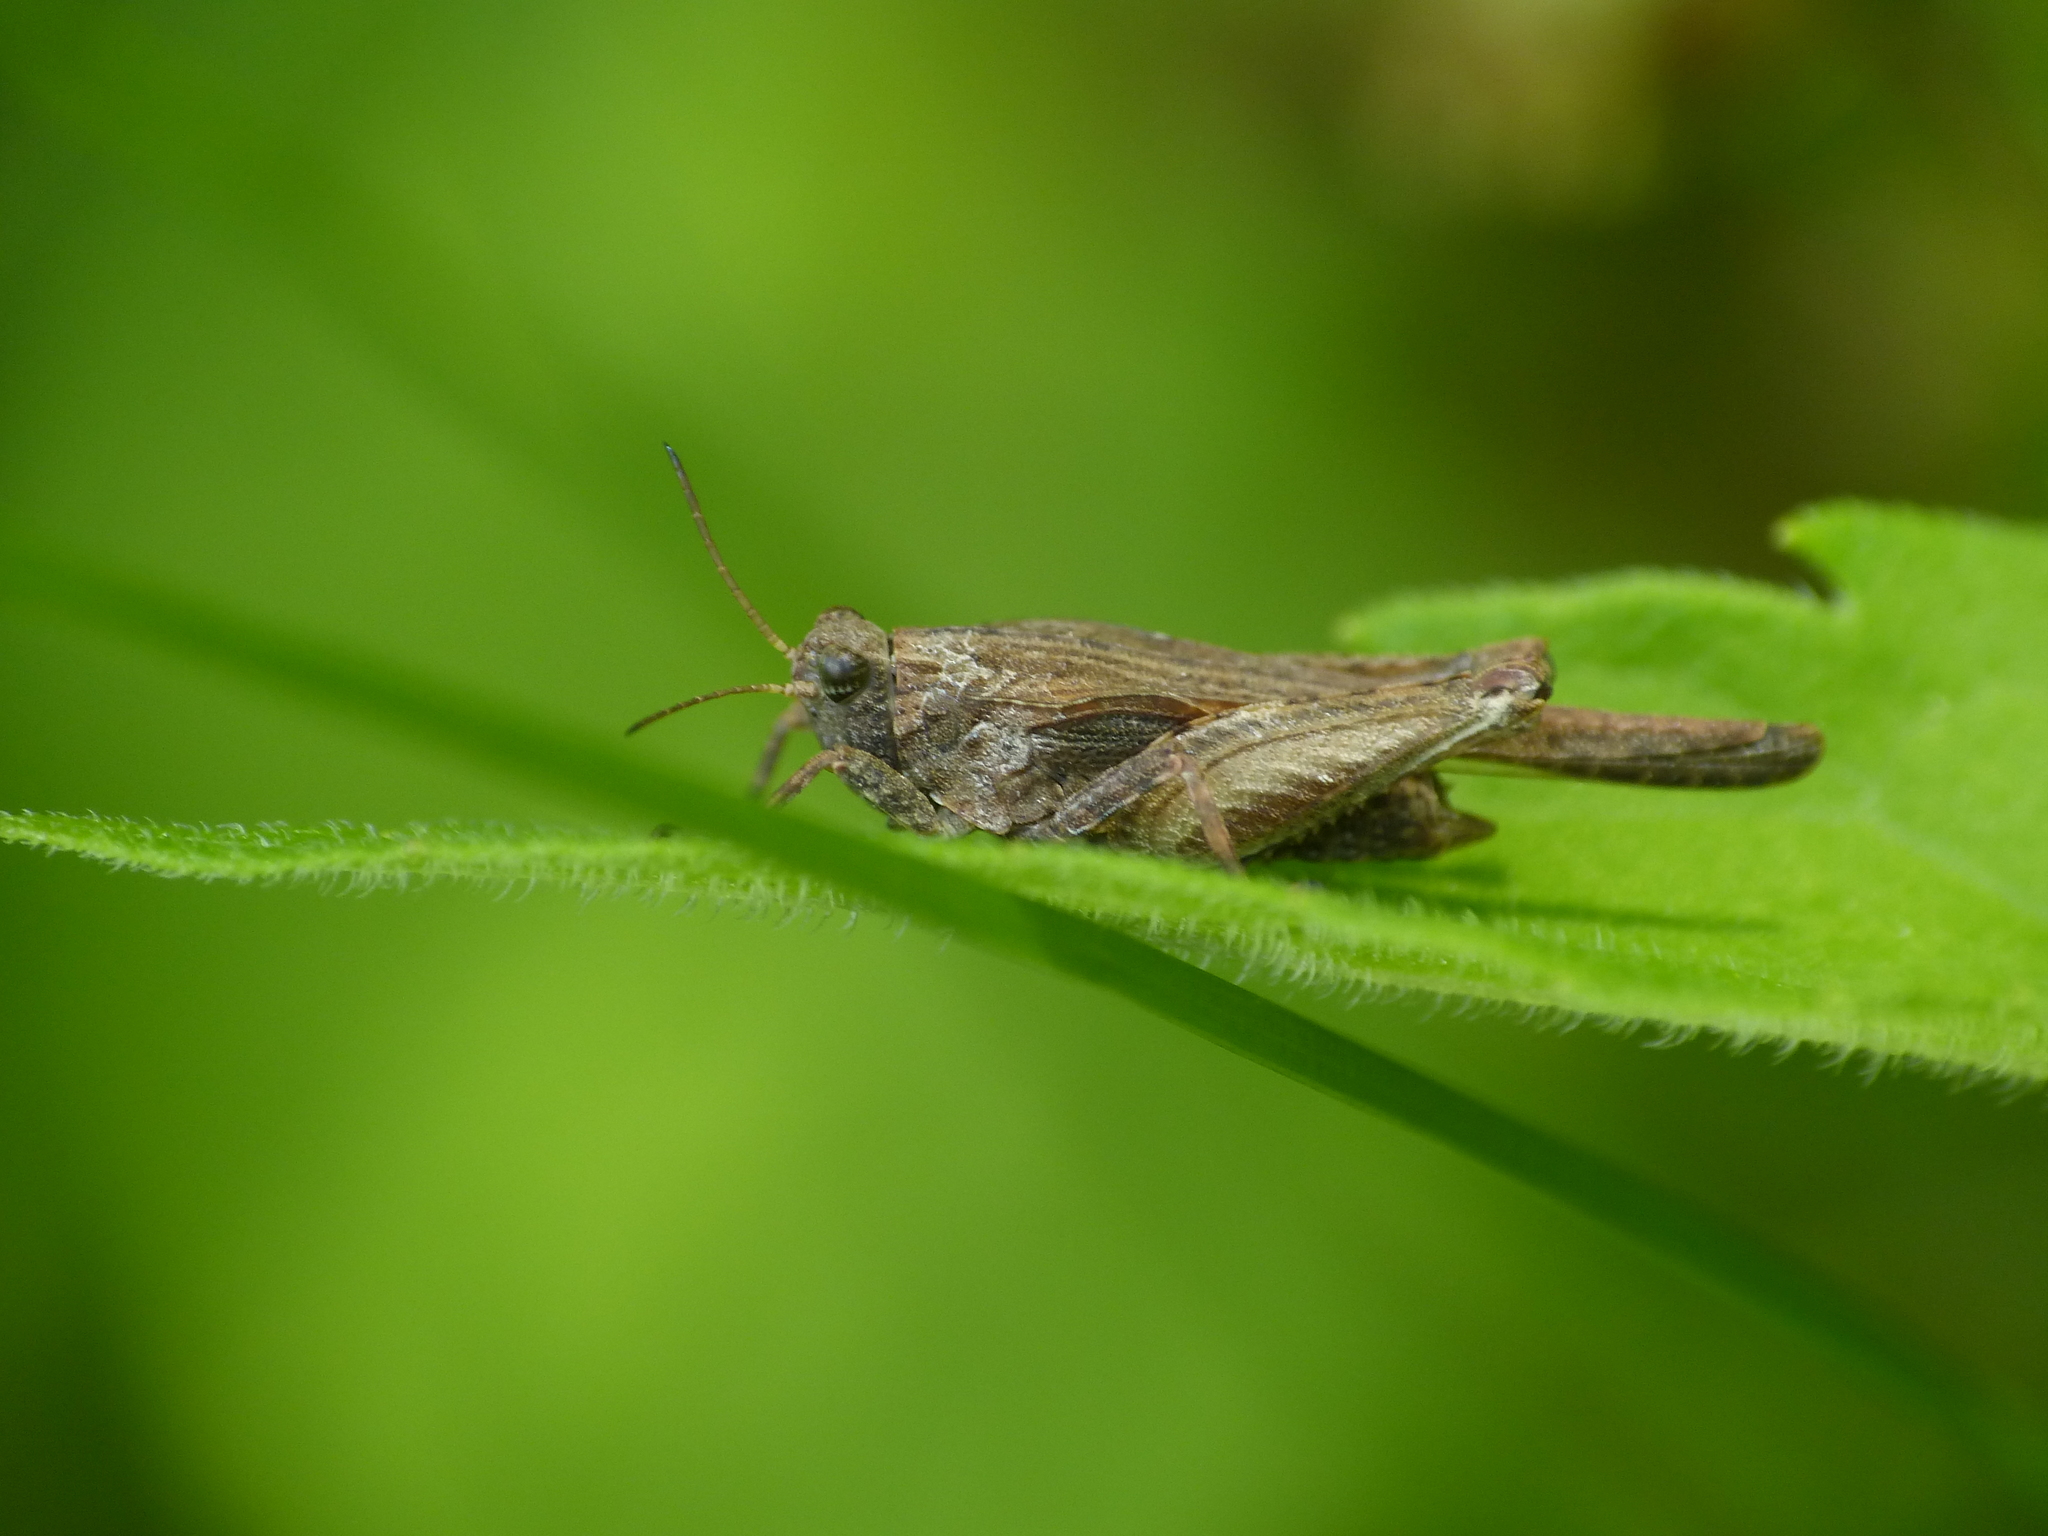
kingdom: Animalia
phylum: Arthropoda
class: Insecta
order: Orthoptera
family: Tetrigidae
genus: Paratettix
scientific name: Paratettix meridionalis
